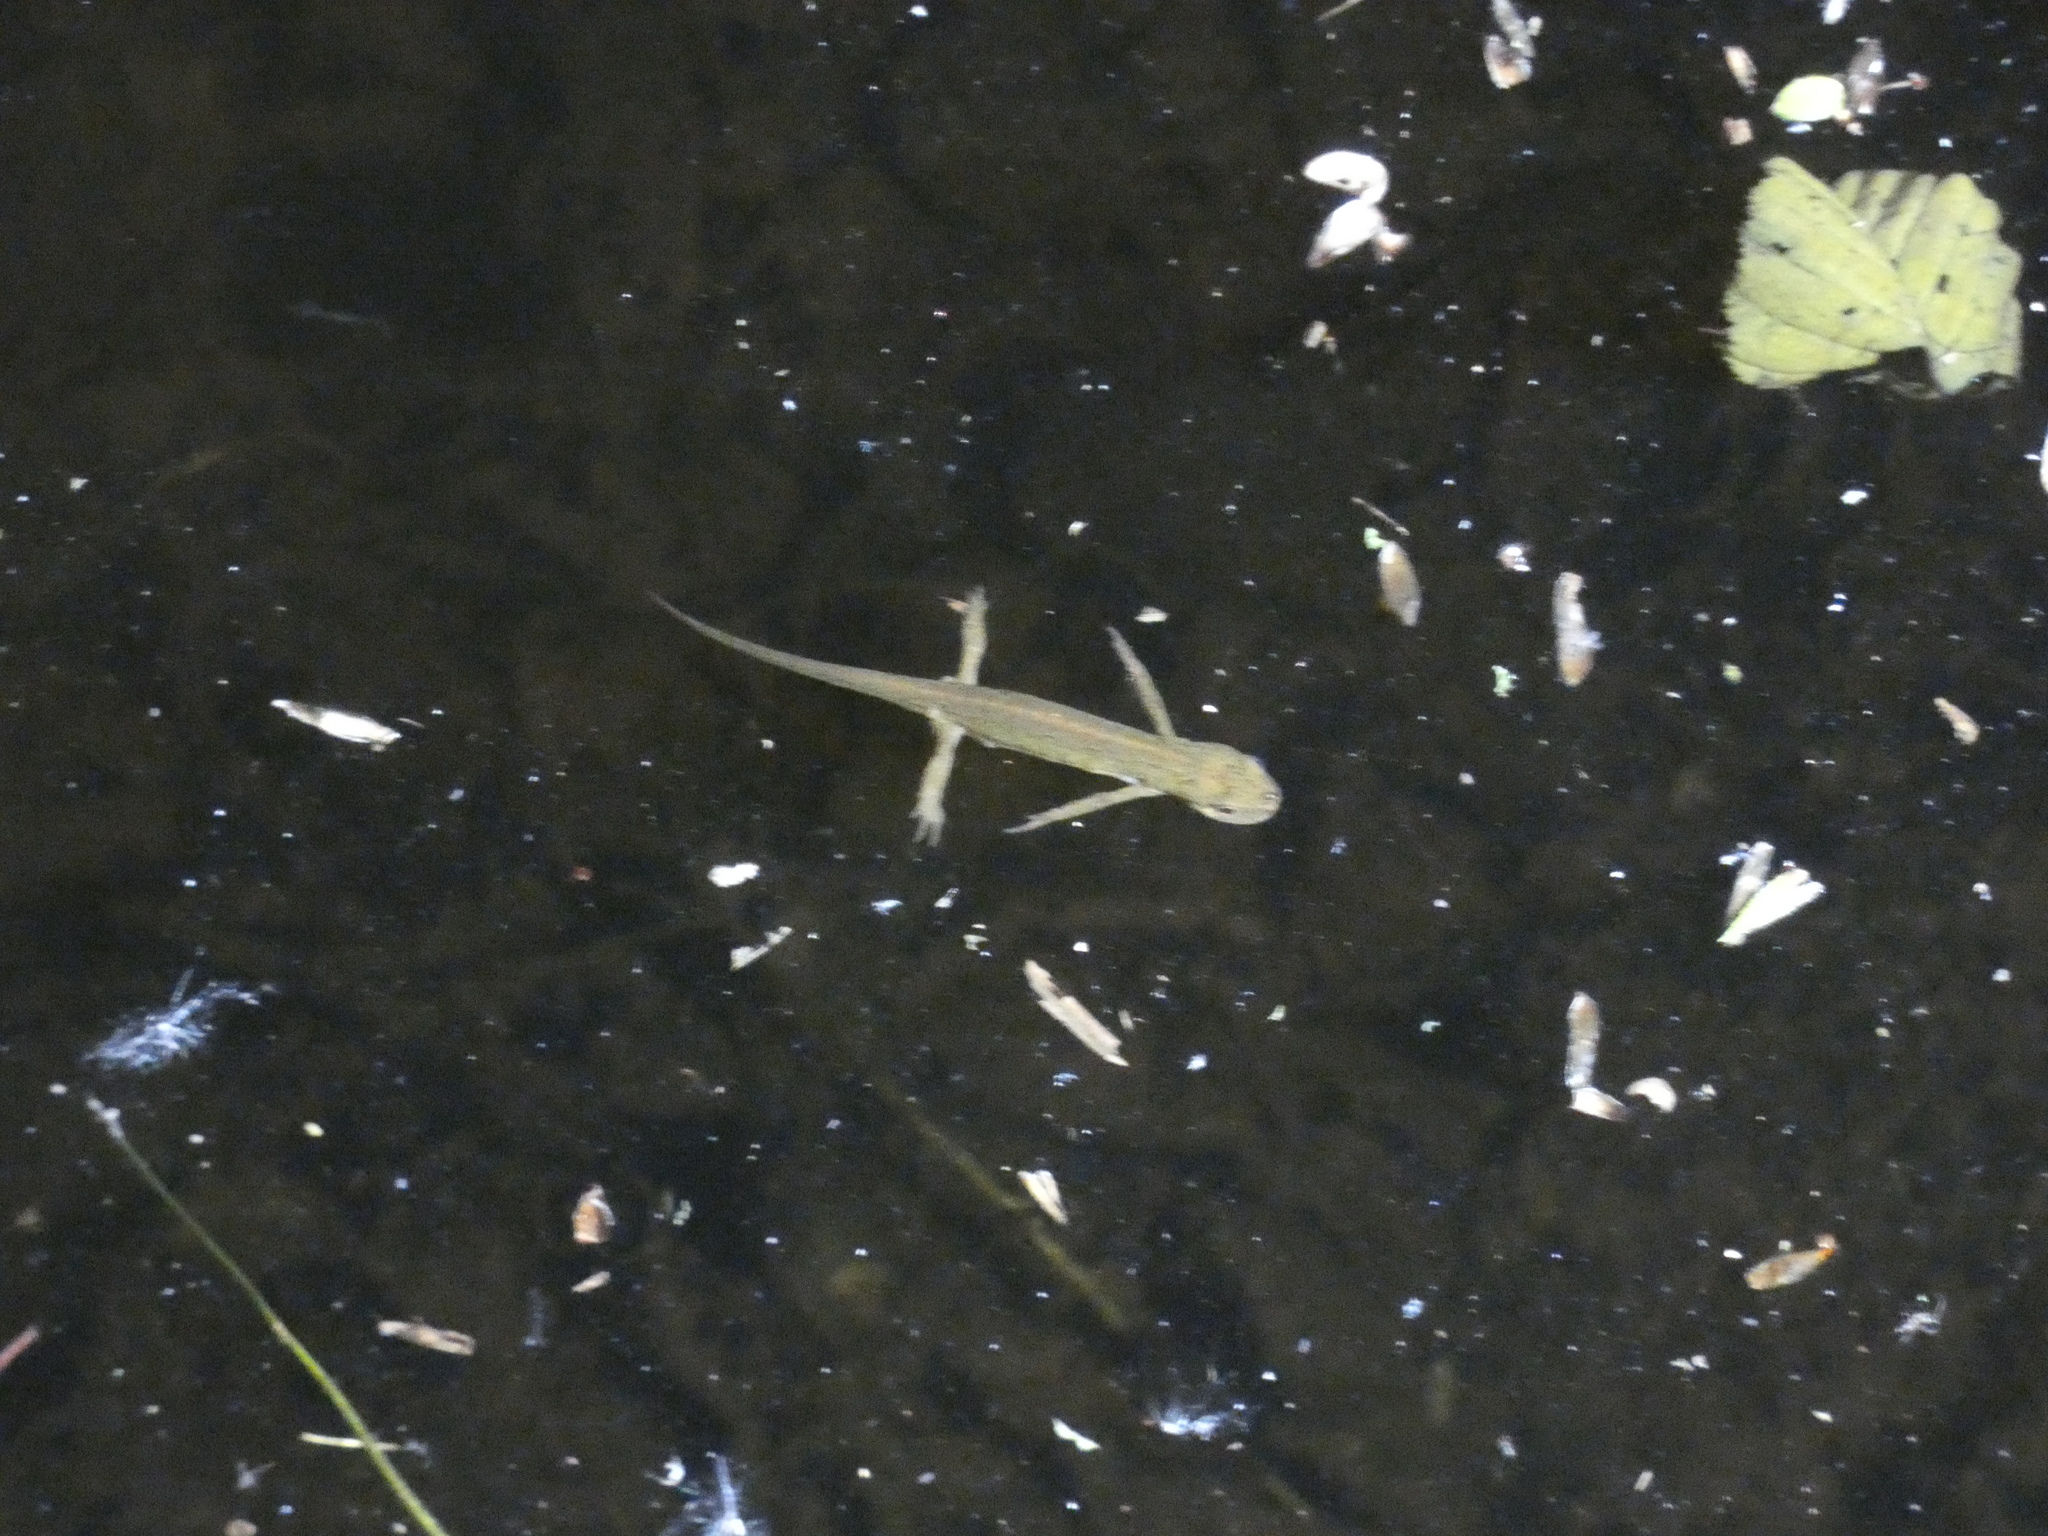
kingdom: Animalia
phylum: Chordata
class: Amphibia
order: Caudata
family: Salamandridae
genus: Lissotriton
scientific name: Lissotriton helveticus
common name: Palmate newt
